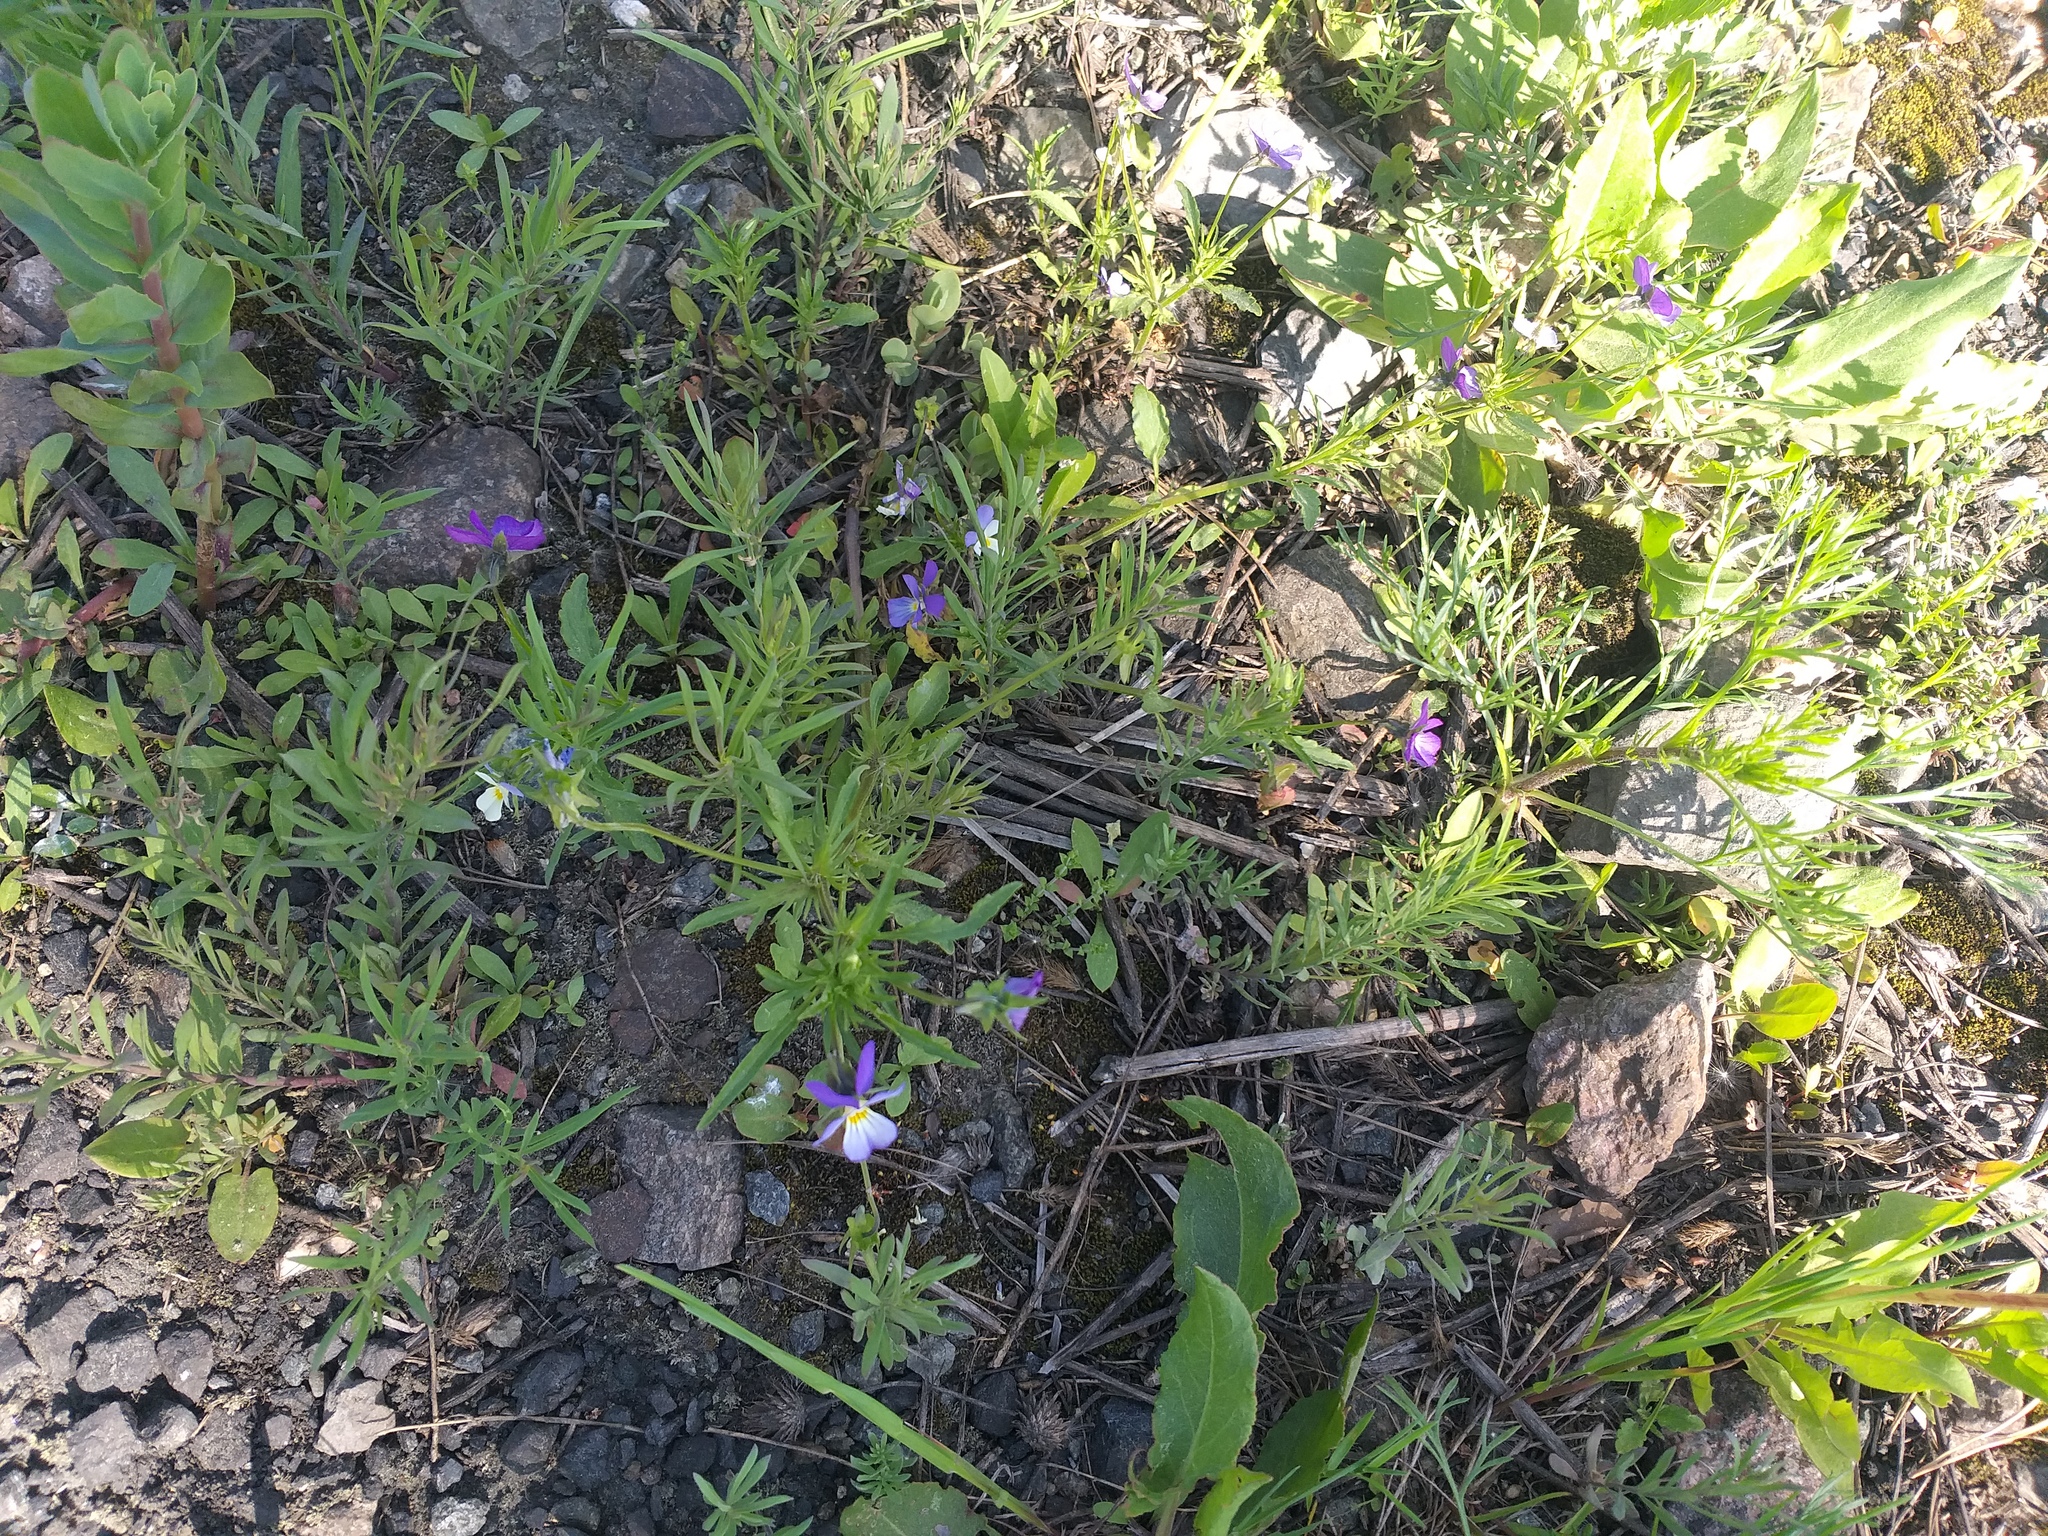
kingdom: Plantae
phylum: Tracheophyta
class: Magnoliopsida
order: Malpighiales
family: Violaceae
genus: Viola
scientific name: Viola tricolor
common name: Pansy
